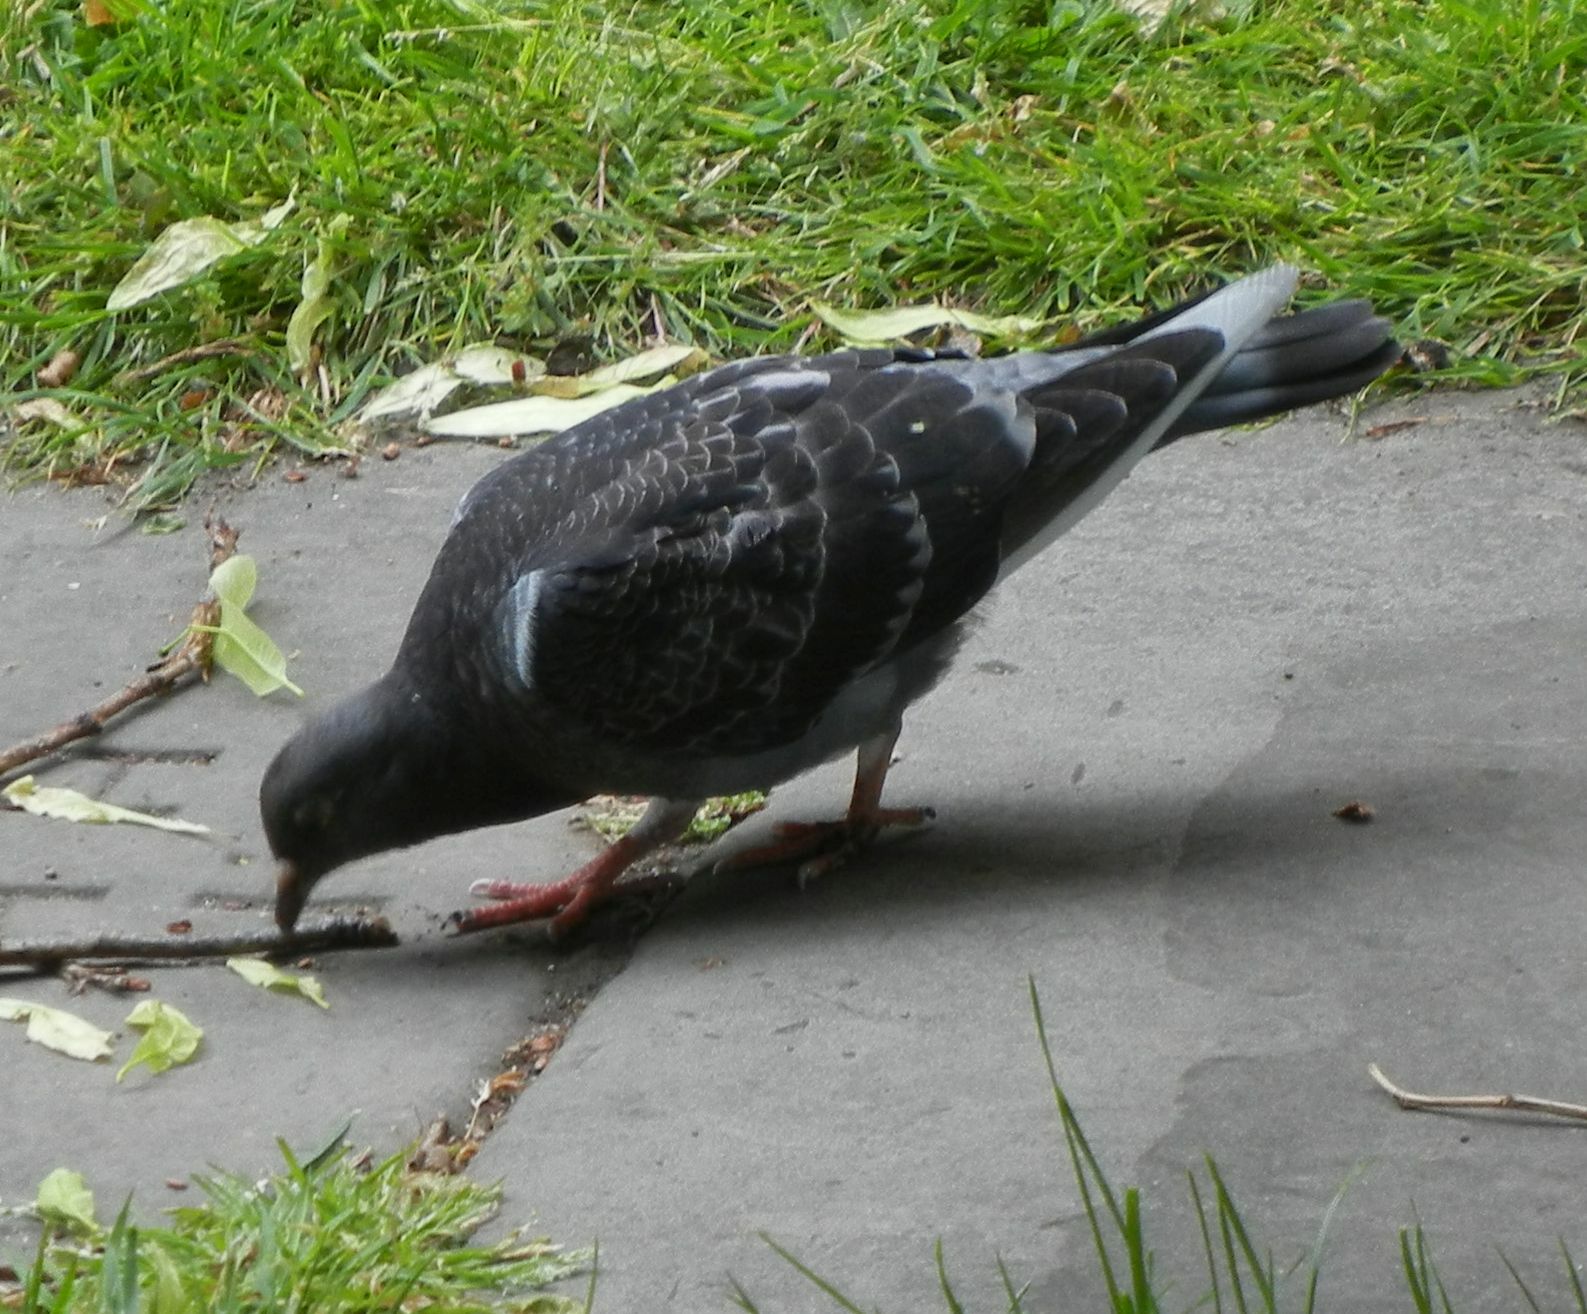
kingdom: Animalia
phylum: Chordata
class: Aves
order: Columbiformes
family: Columbidae
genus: Columba
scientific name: Columba livia
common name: Rock pigeon
